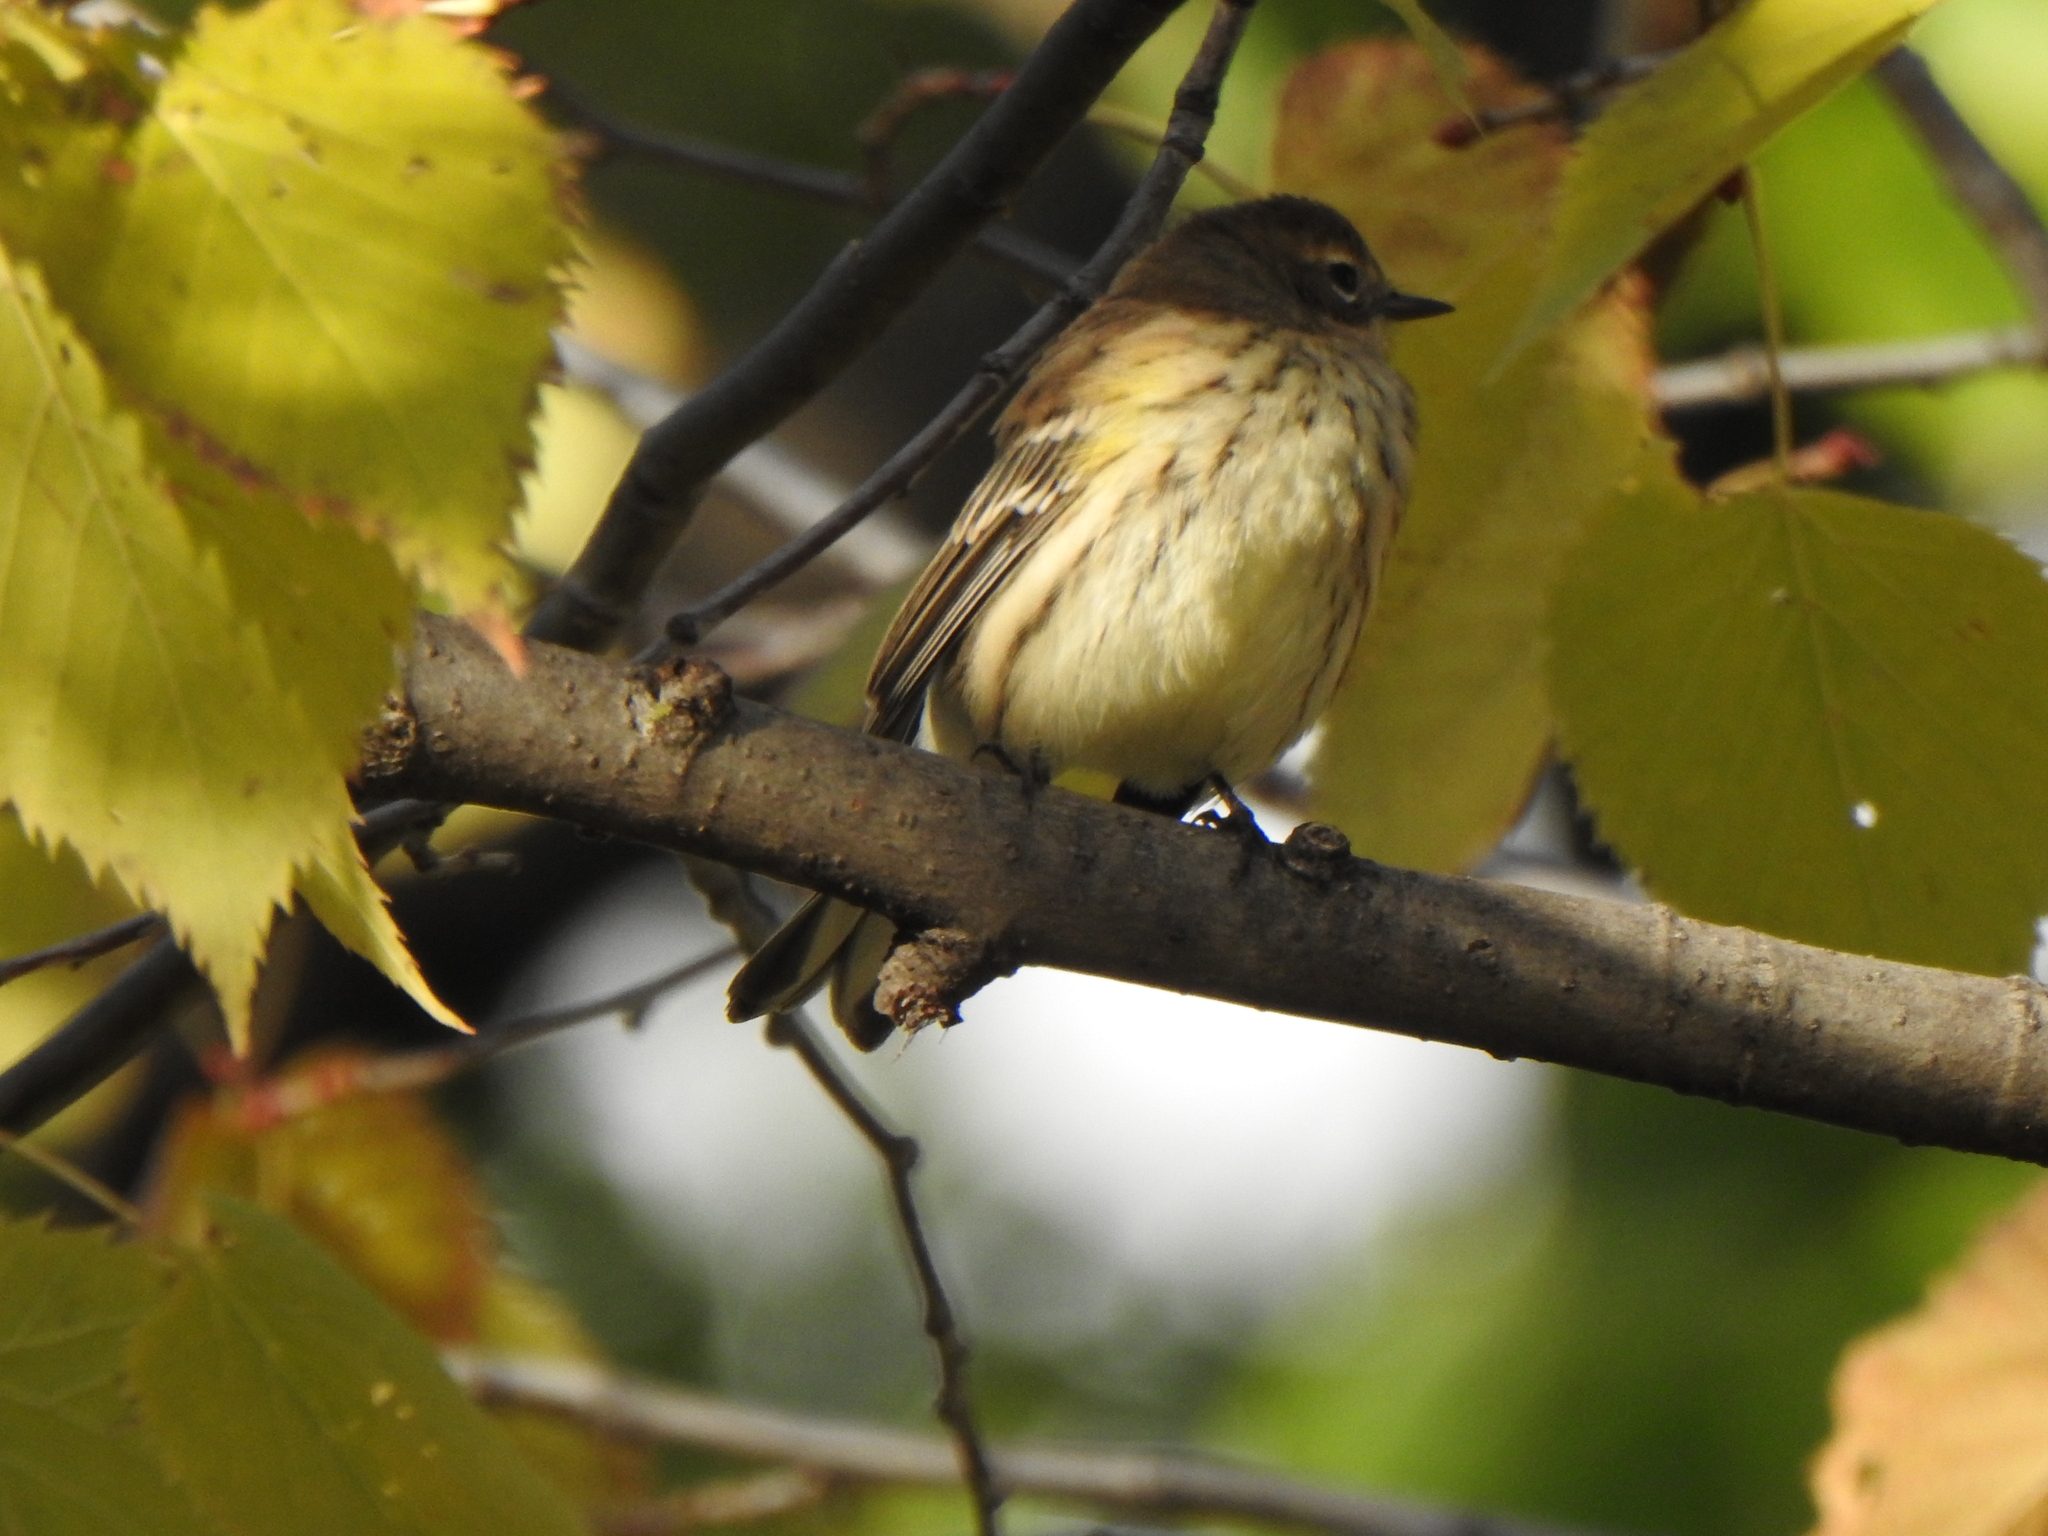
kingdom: Animalia
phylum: Chordata
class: Aves
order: Passeriformes
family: Parulidae
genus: Setophaga
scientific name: Setophaga coronata
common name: Myrtle warbler
